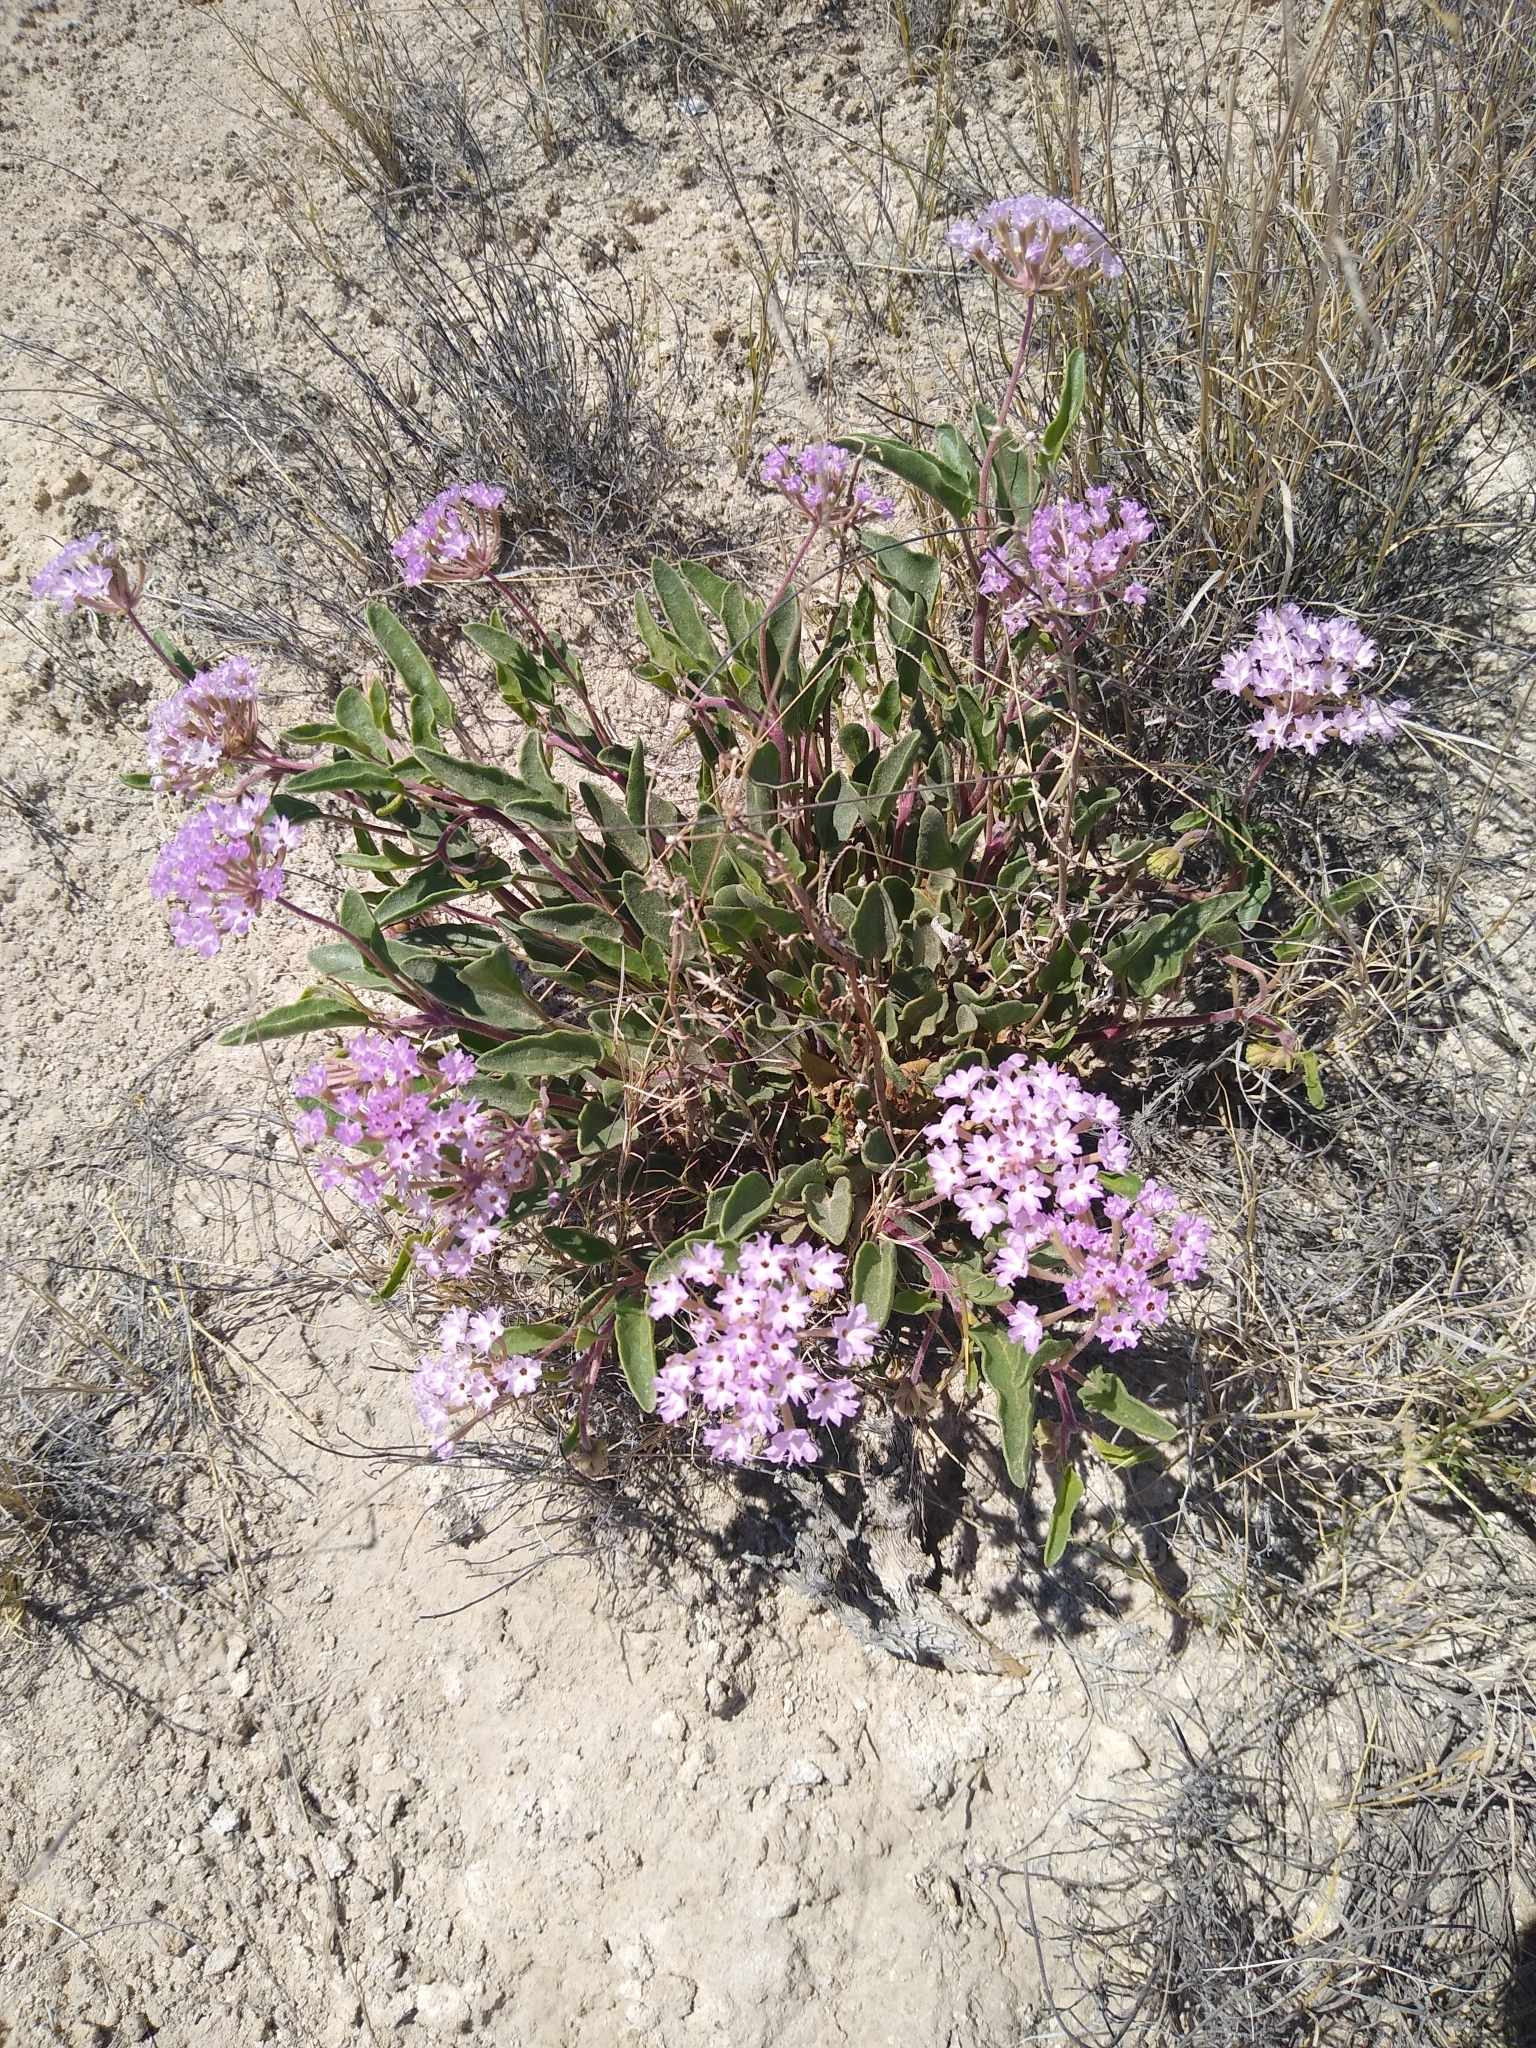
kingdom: Plantae
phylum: Tracheophyta
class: Magnoliopsida
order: Caryophyllales
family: Nyctaginaceae
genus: Abronia
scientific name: Abronia angustifolia
